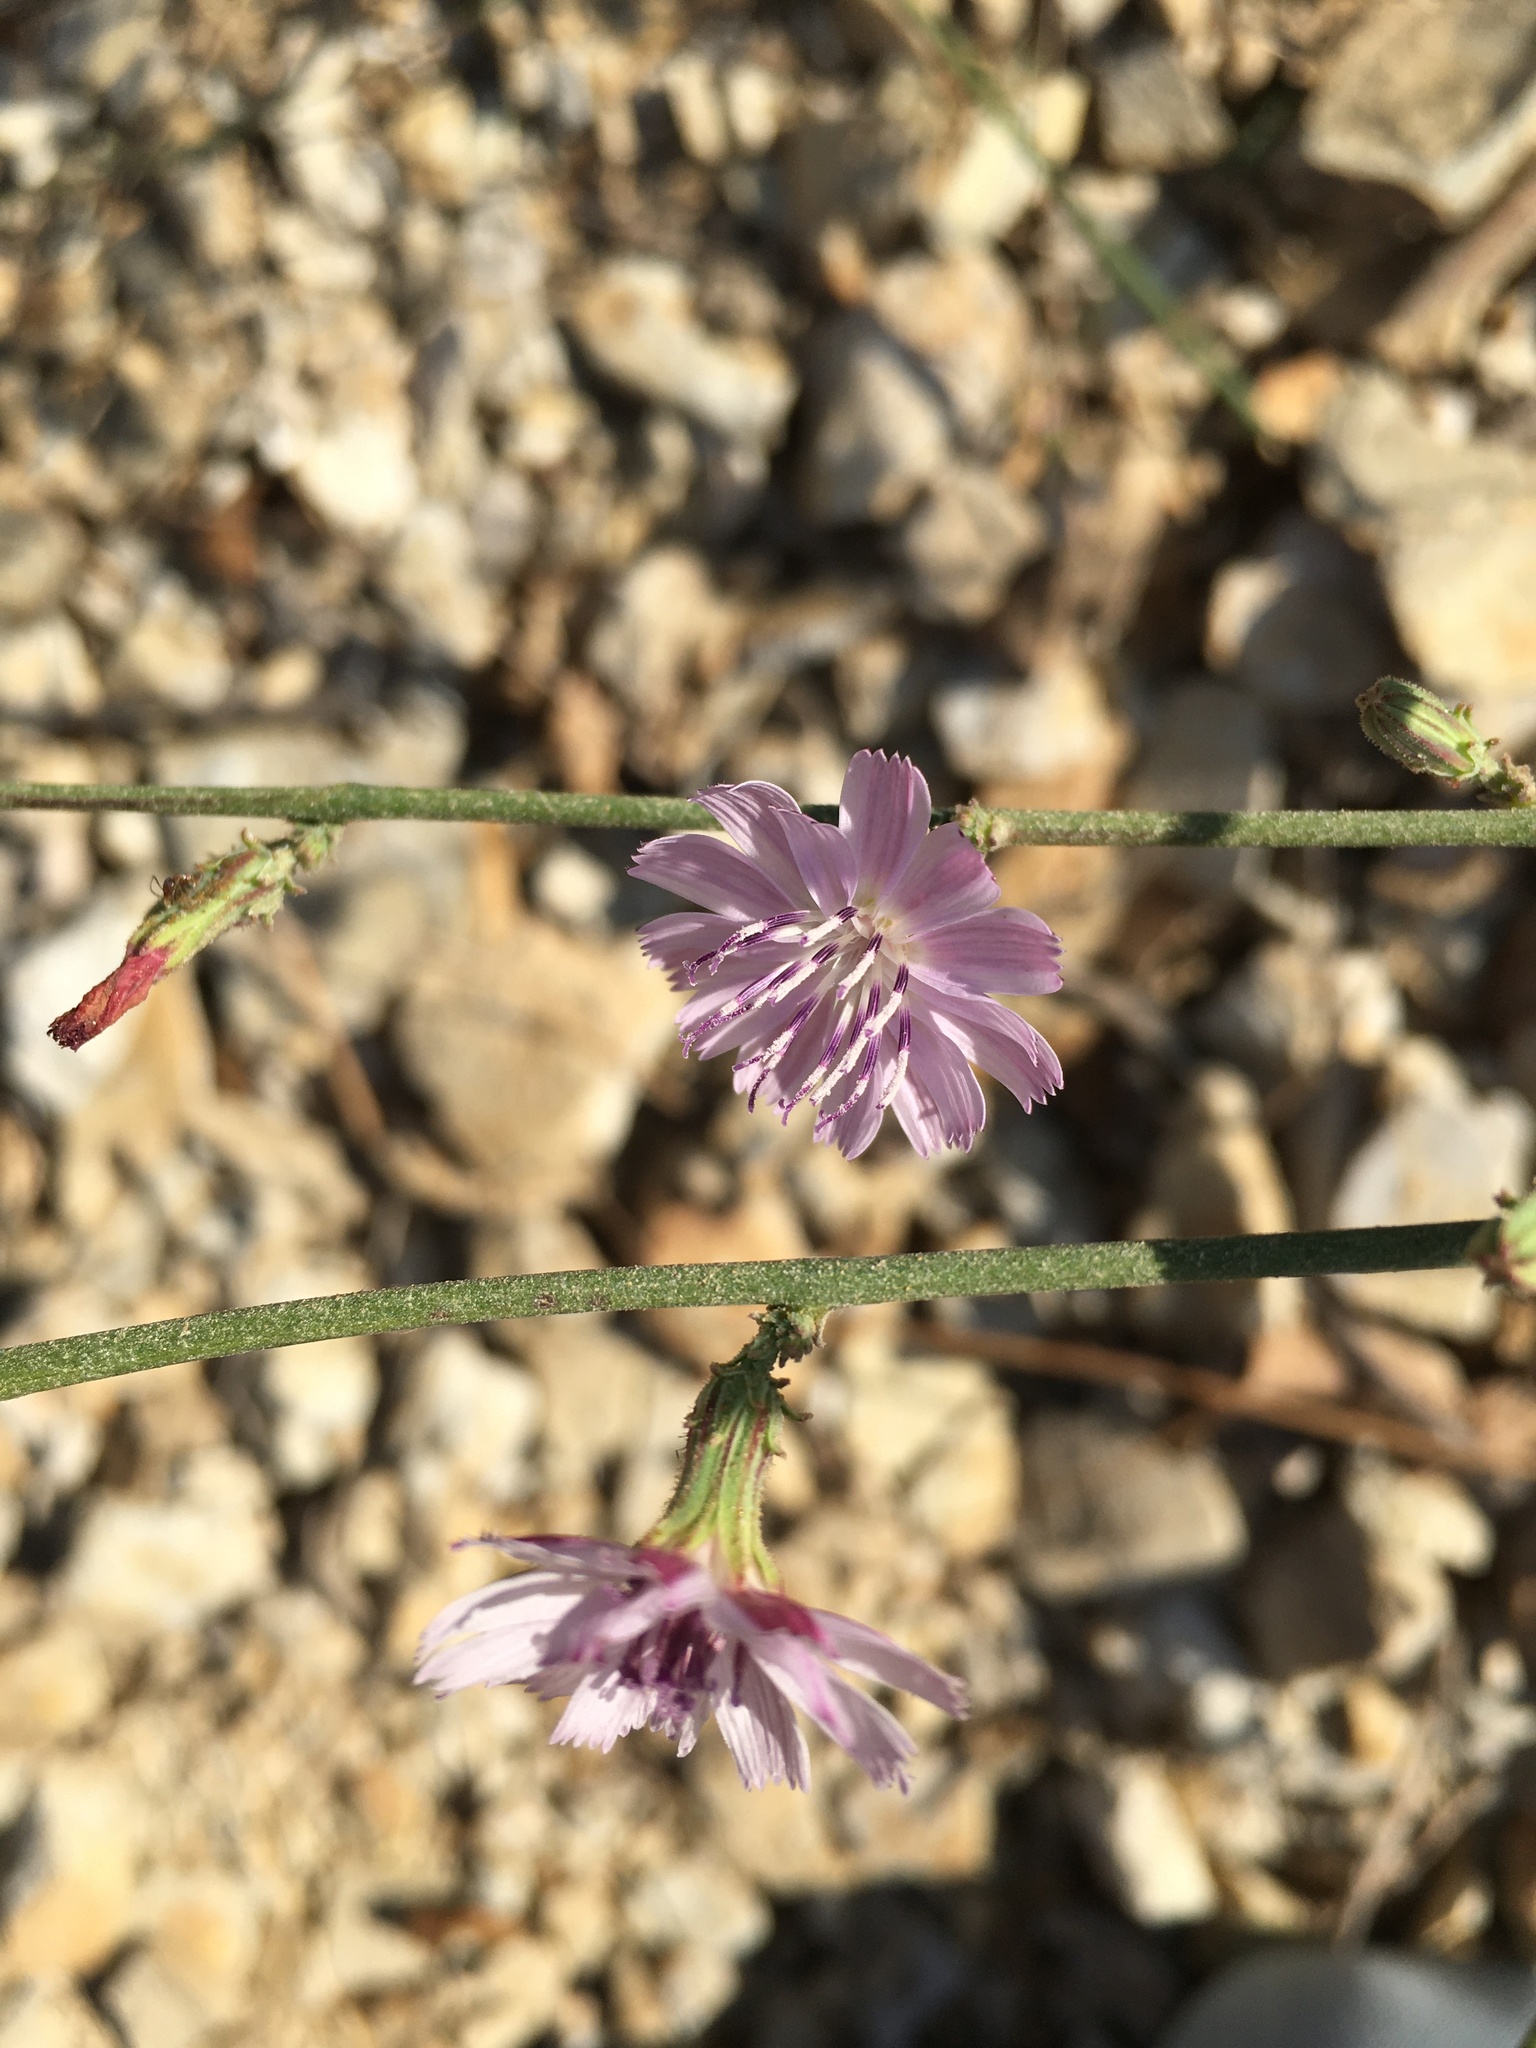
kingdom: Plantae
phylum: Tracheophyta
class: Magnoliopsida
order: Asterales
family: Asteraceae
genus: Stephanomeria
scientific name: Stephanomeria diegensis
